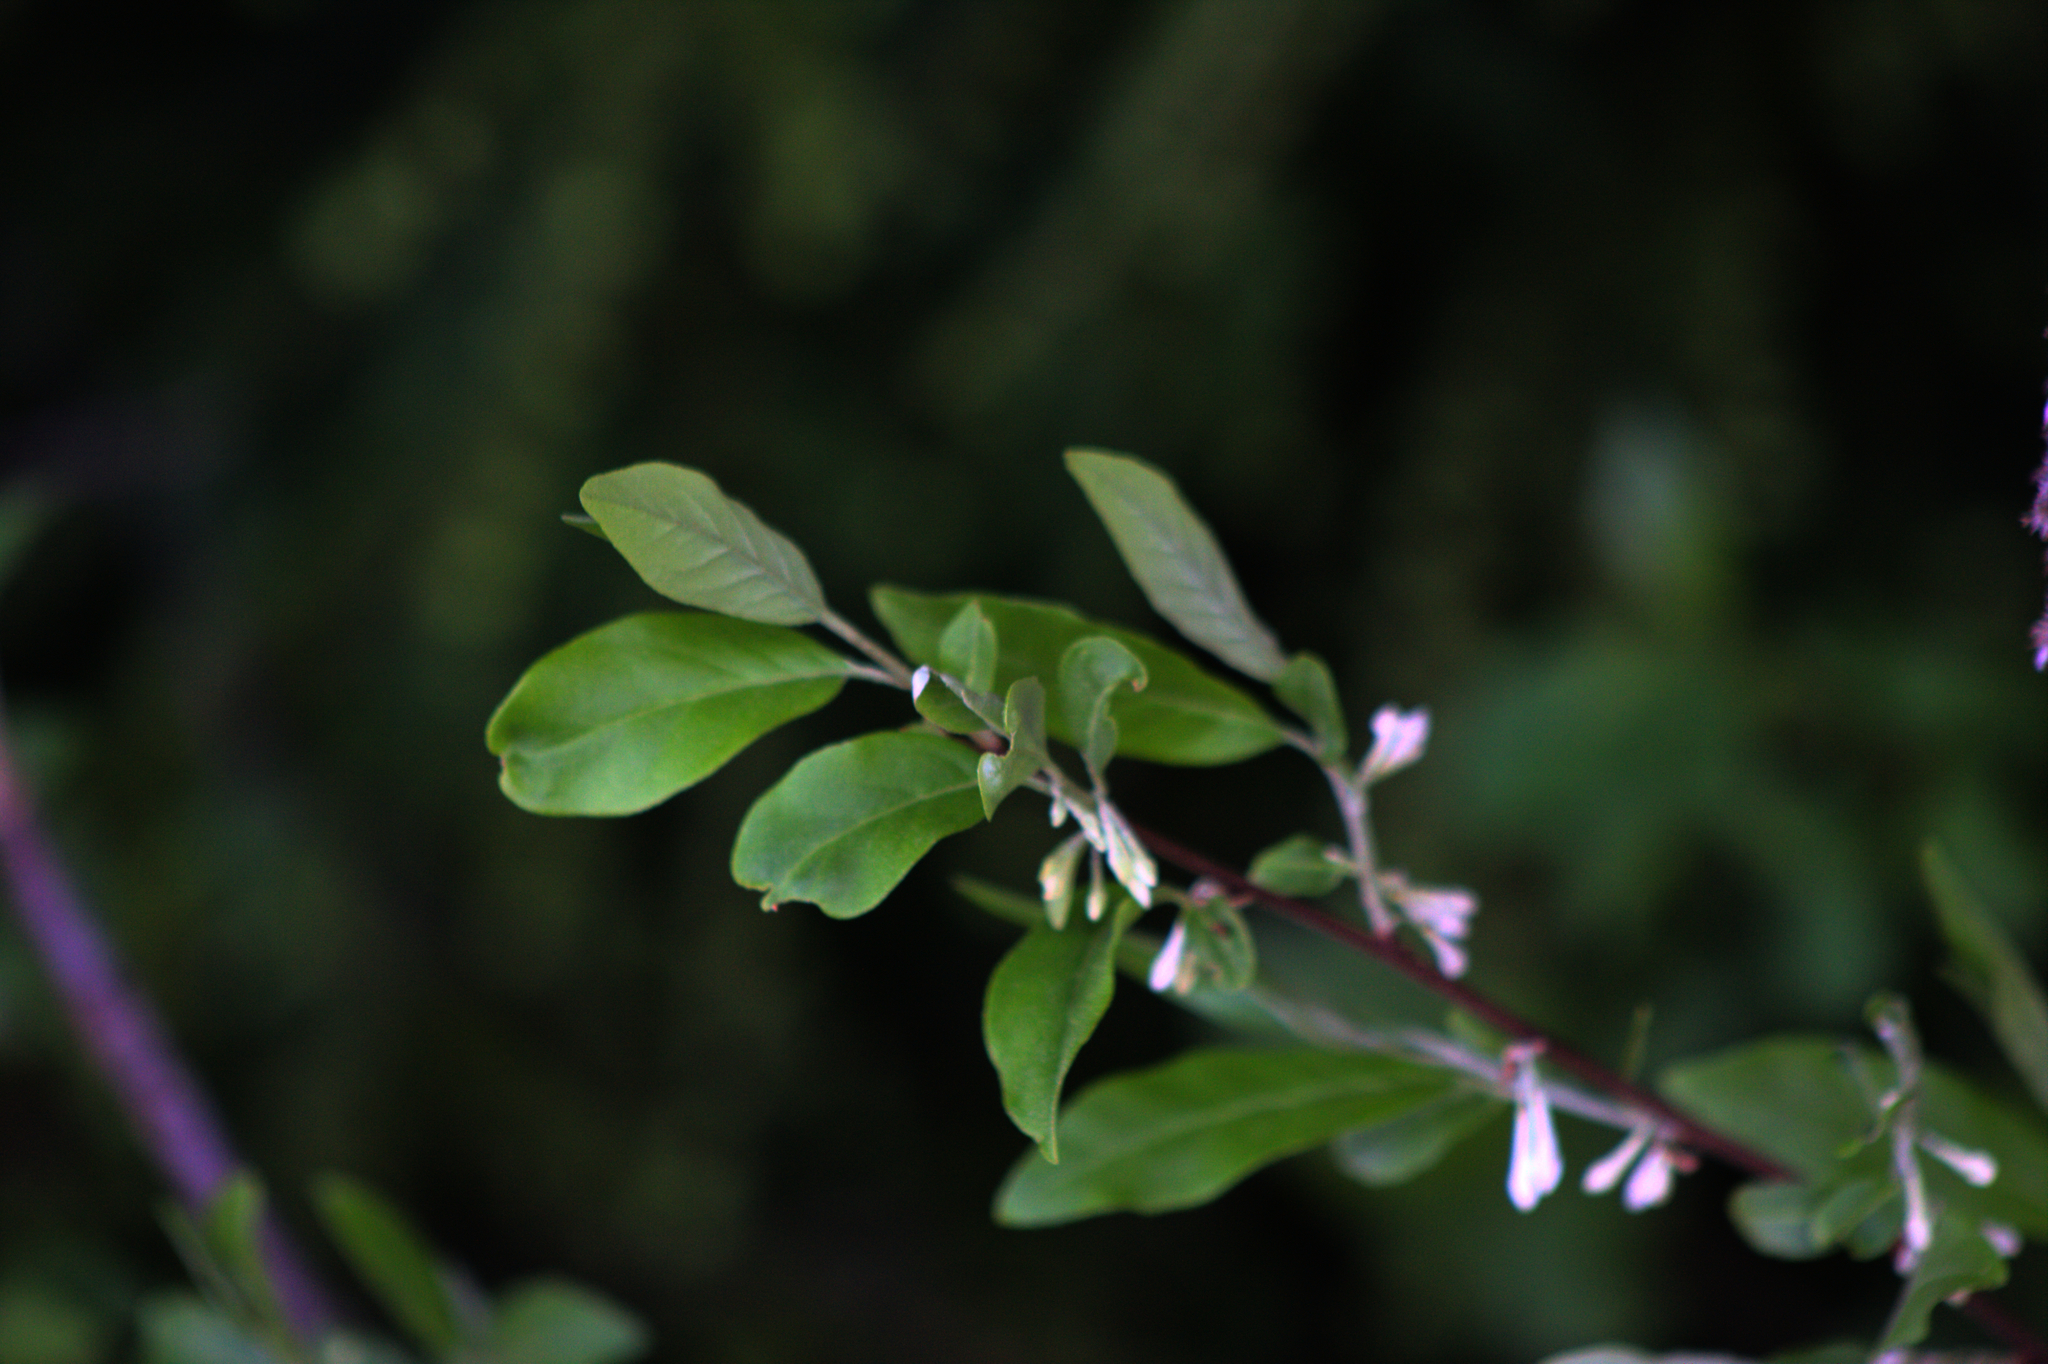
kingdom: Plantae
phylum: Tracheophyta
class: Magnoliopsida
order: Rosales
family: Elaeagnaceae
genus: Elaeagnus
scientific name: Elaeagnus umbellata
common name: Autumn olive
